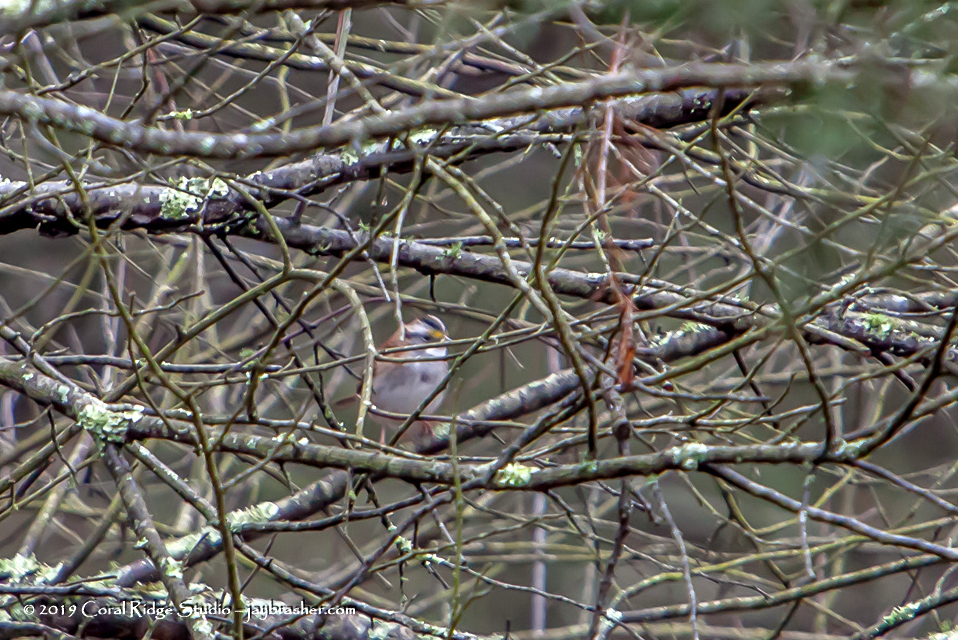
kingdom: Animalia
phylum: Chordata
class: Aves
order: Passeriformes
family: Passerellidae
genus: Zonotrichia
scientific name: Zonotrichia albicollis
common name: White-throated sparrow
